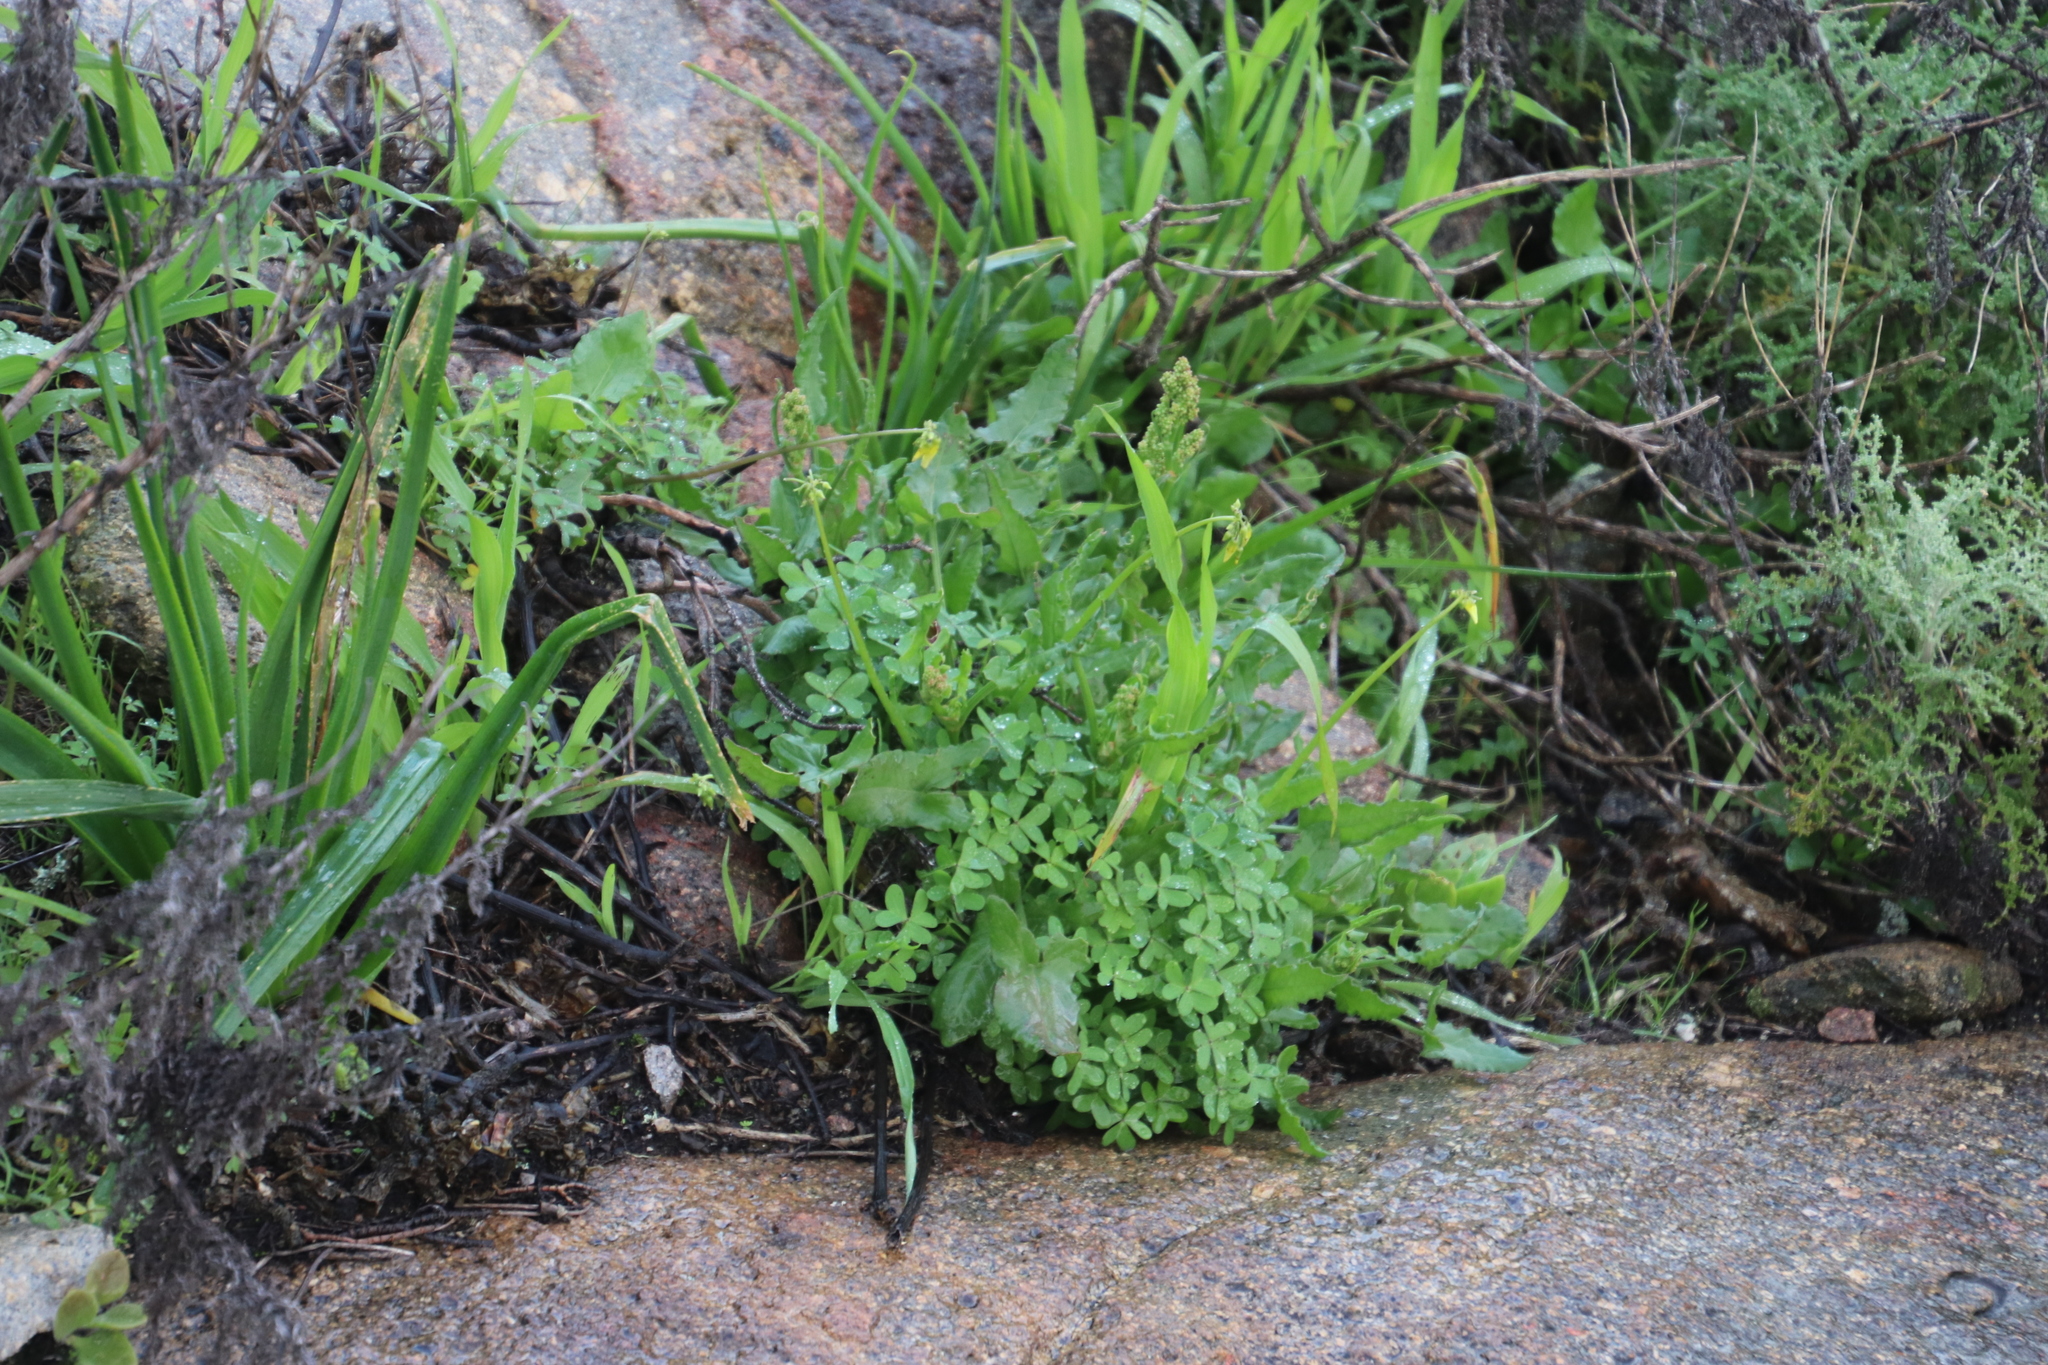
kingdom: Plantae
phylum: Tracheophyta
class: Magnoliopsida
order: Oxalidales
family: Oxalidaceae
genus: Oxalis
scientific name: Oxalis pes-caprae
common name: Bermuda-buttercup
